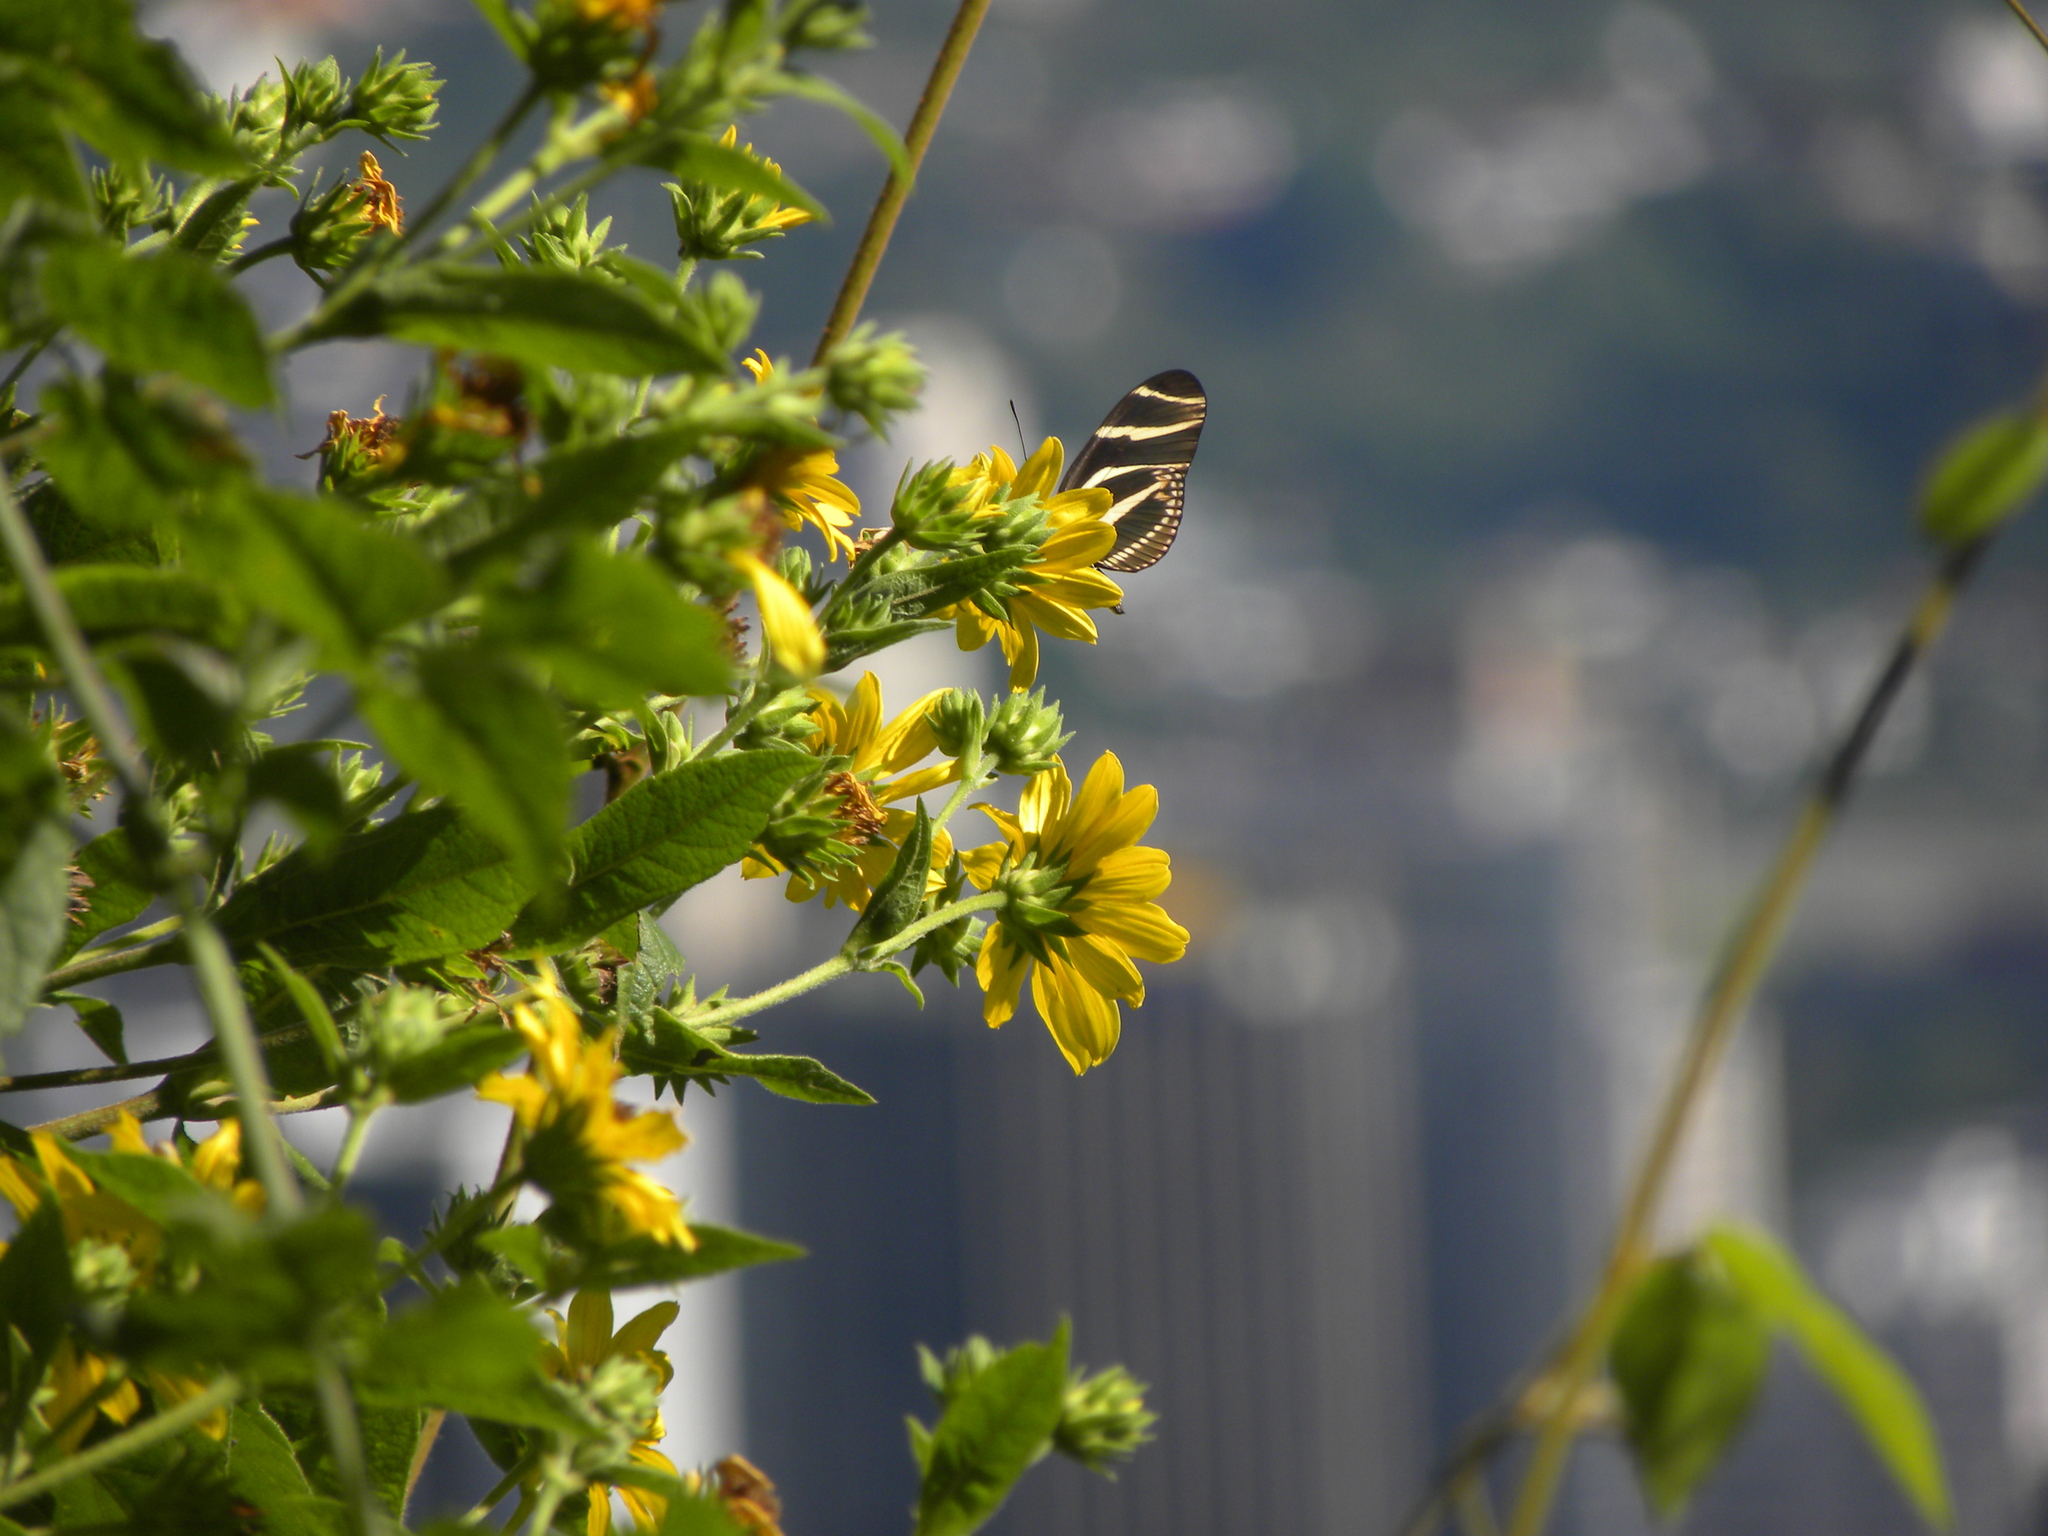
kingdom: Animalia
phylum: Arthropoda
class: Insecta
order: Lepidoptera
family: Nymphalidae
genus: Heliconius
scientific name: Heliconius charithonia
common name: Zebra long wing
